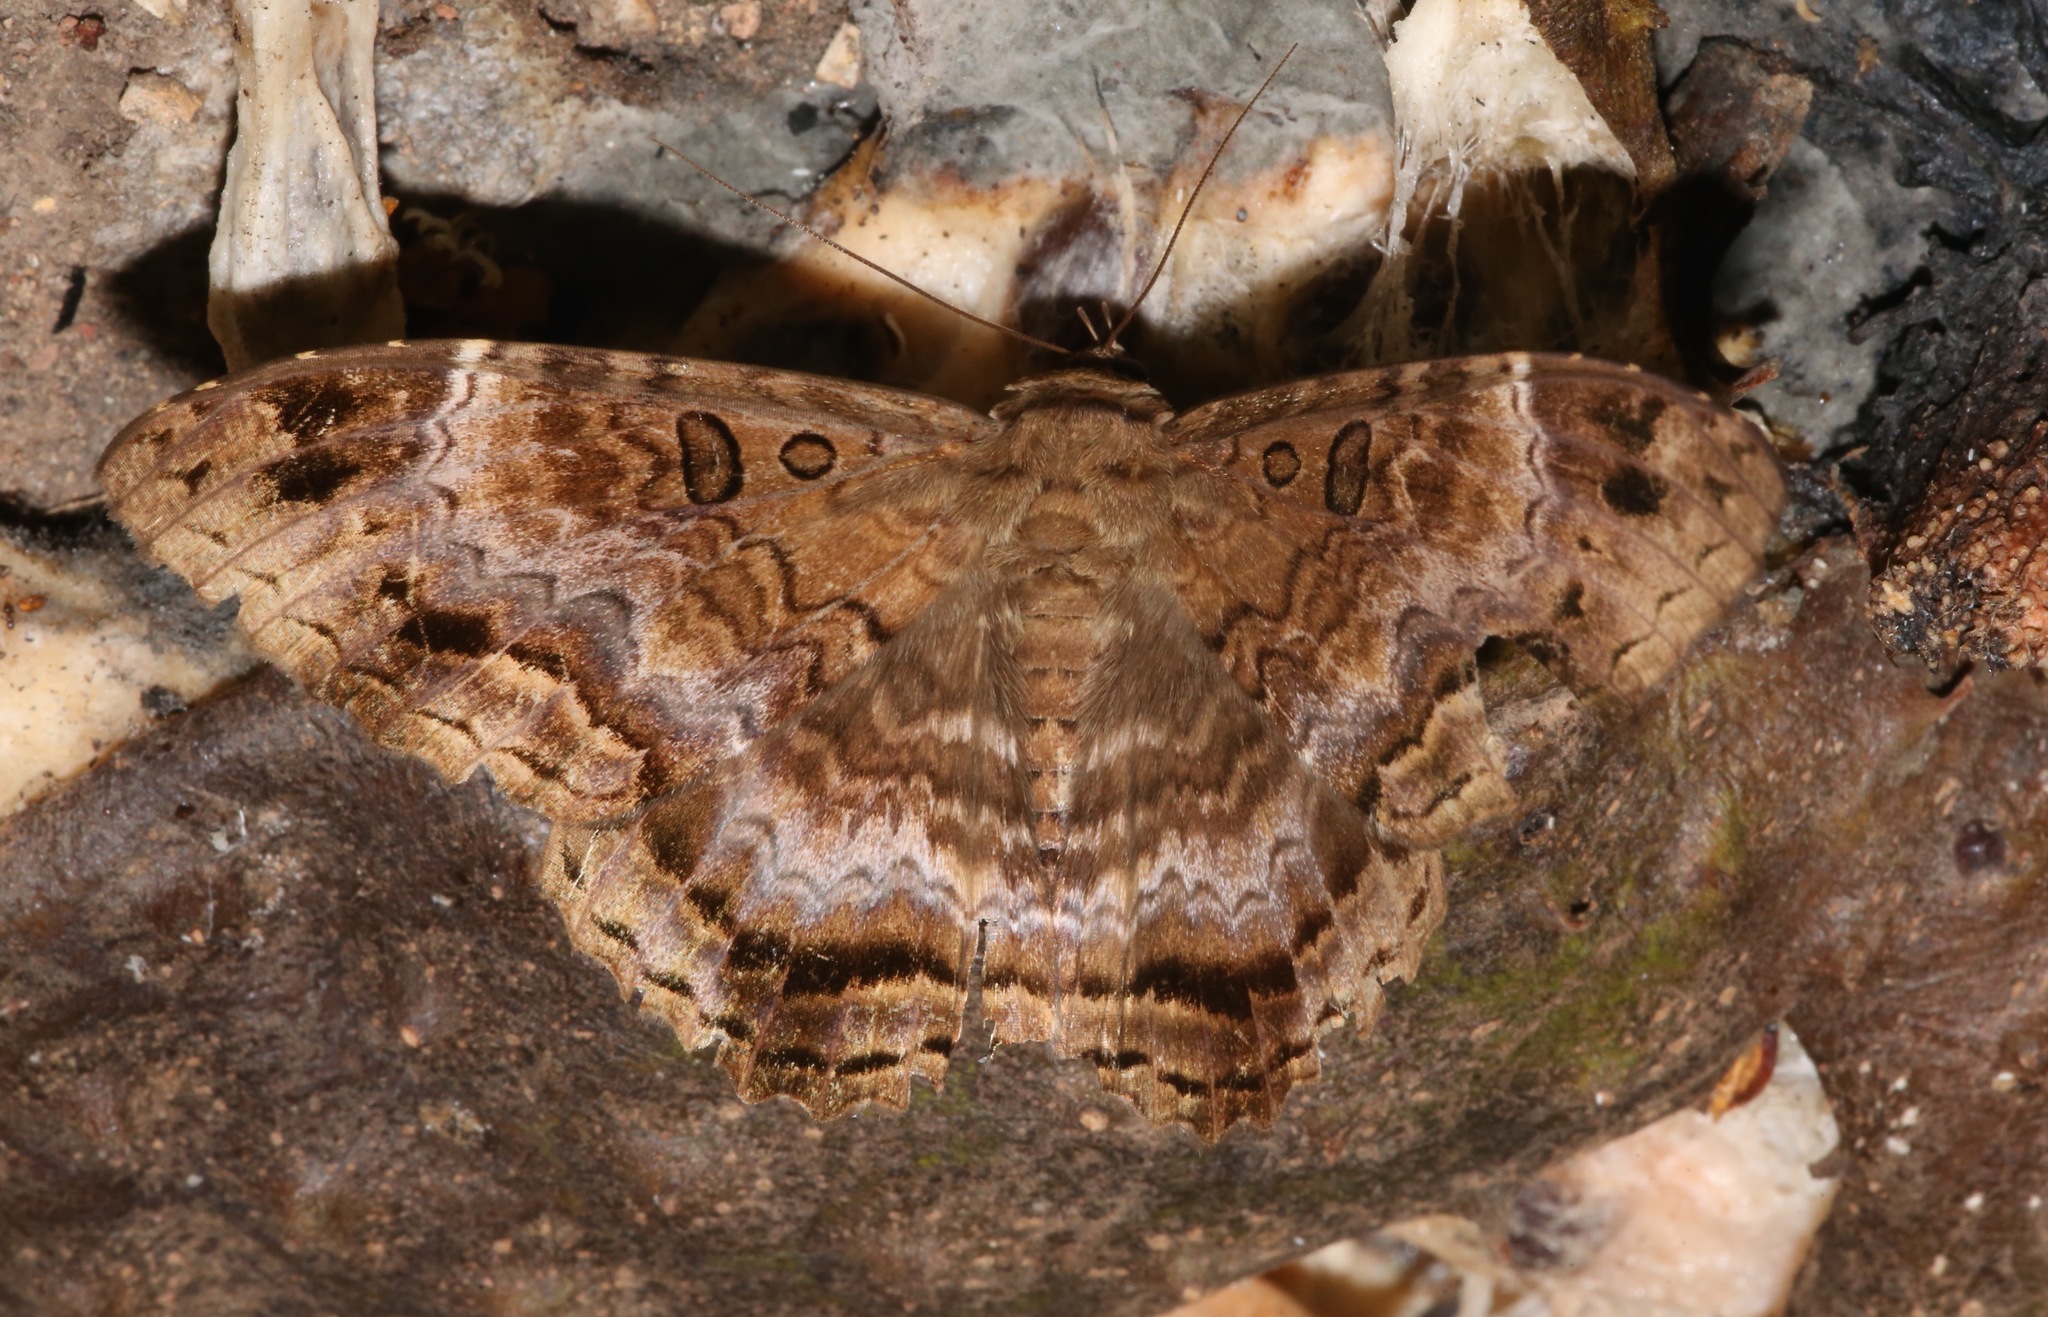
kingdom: Animalia
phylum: Arthropoda
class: Insecta
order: Lepidoptera
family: Erebidae
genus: Feigeria
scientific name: Feigeria
